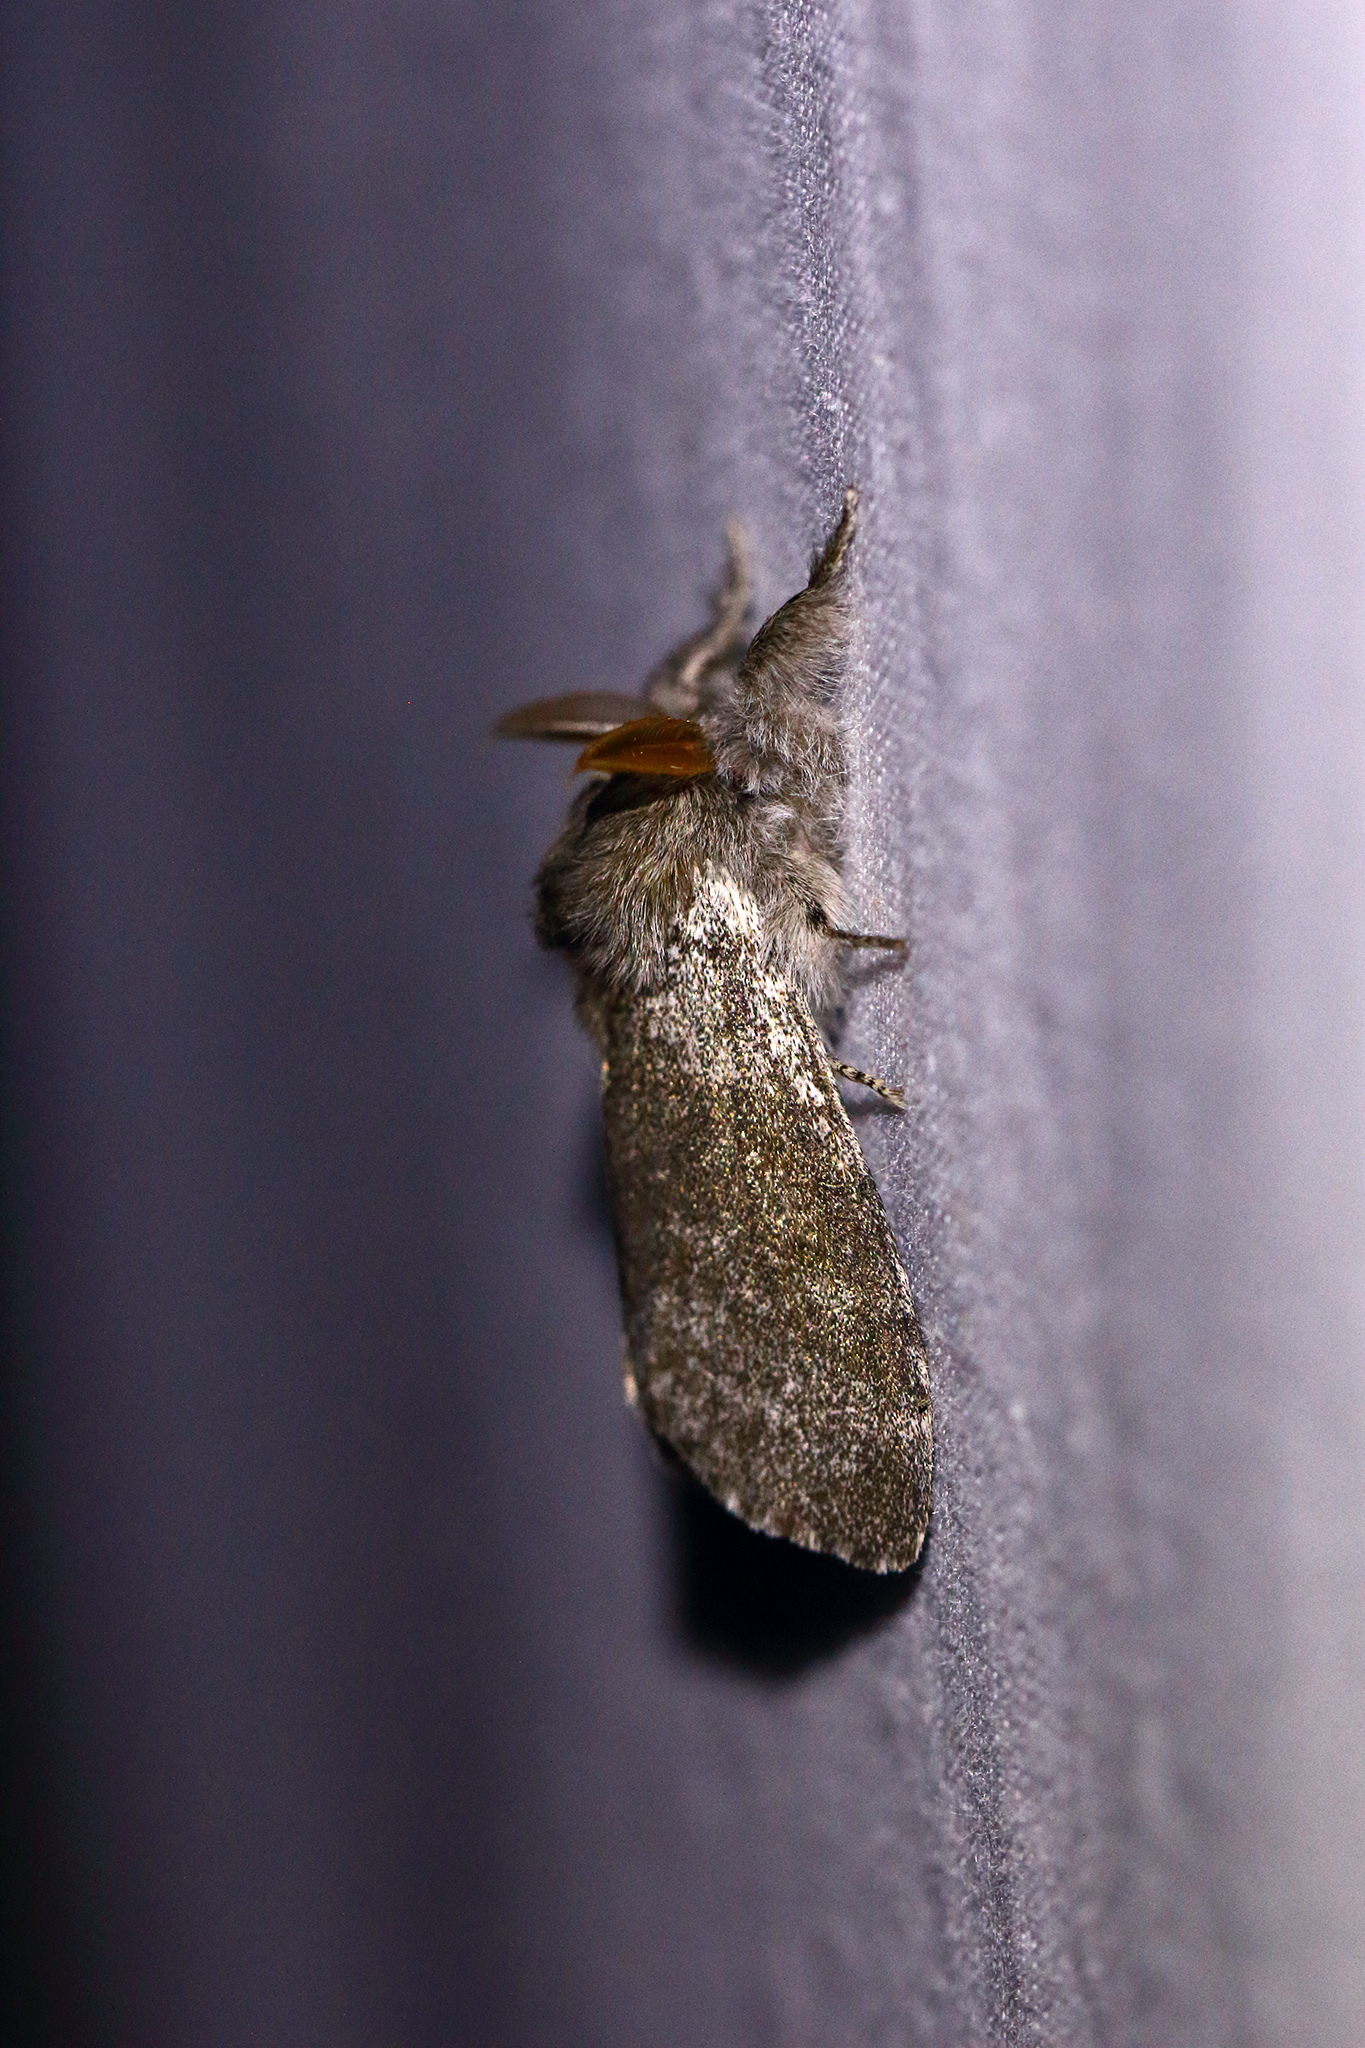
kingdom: Animalia
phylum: Arthropoda
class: Insecta
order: Lepidoptera
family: Erebidae
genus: Calliteara
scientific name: Calliteara pudibunda
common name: Pale tussock
